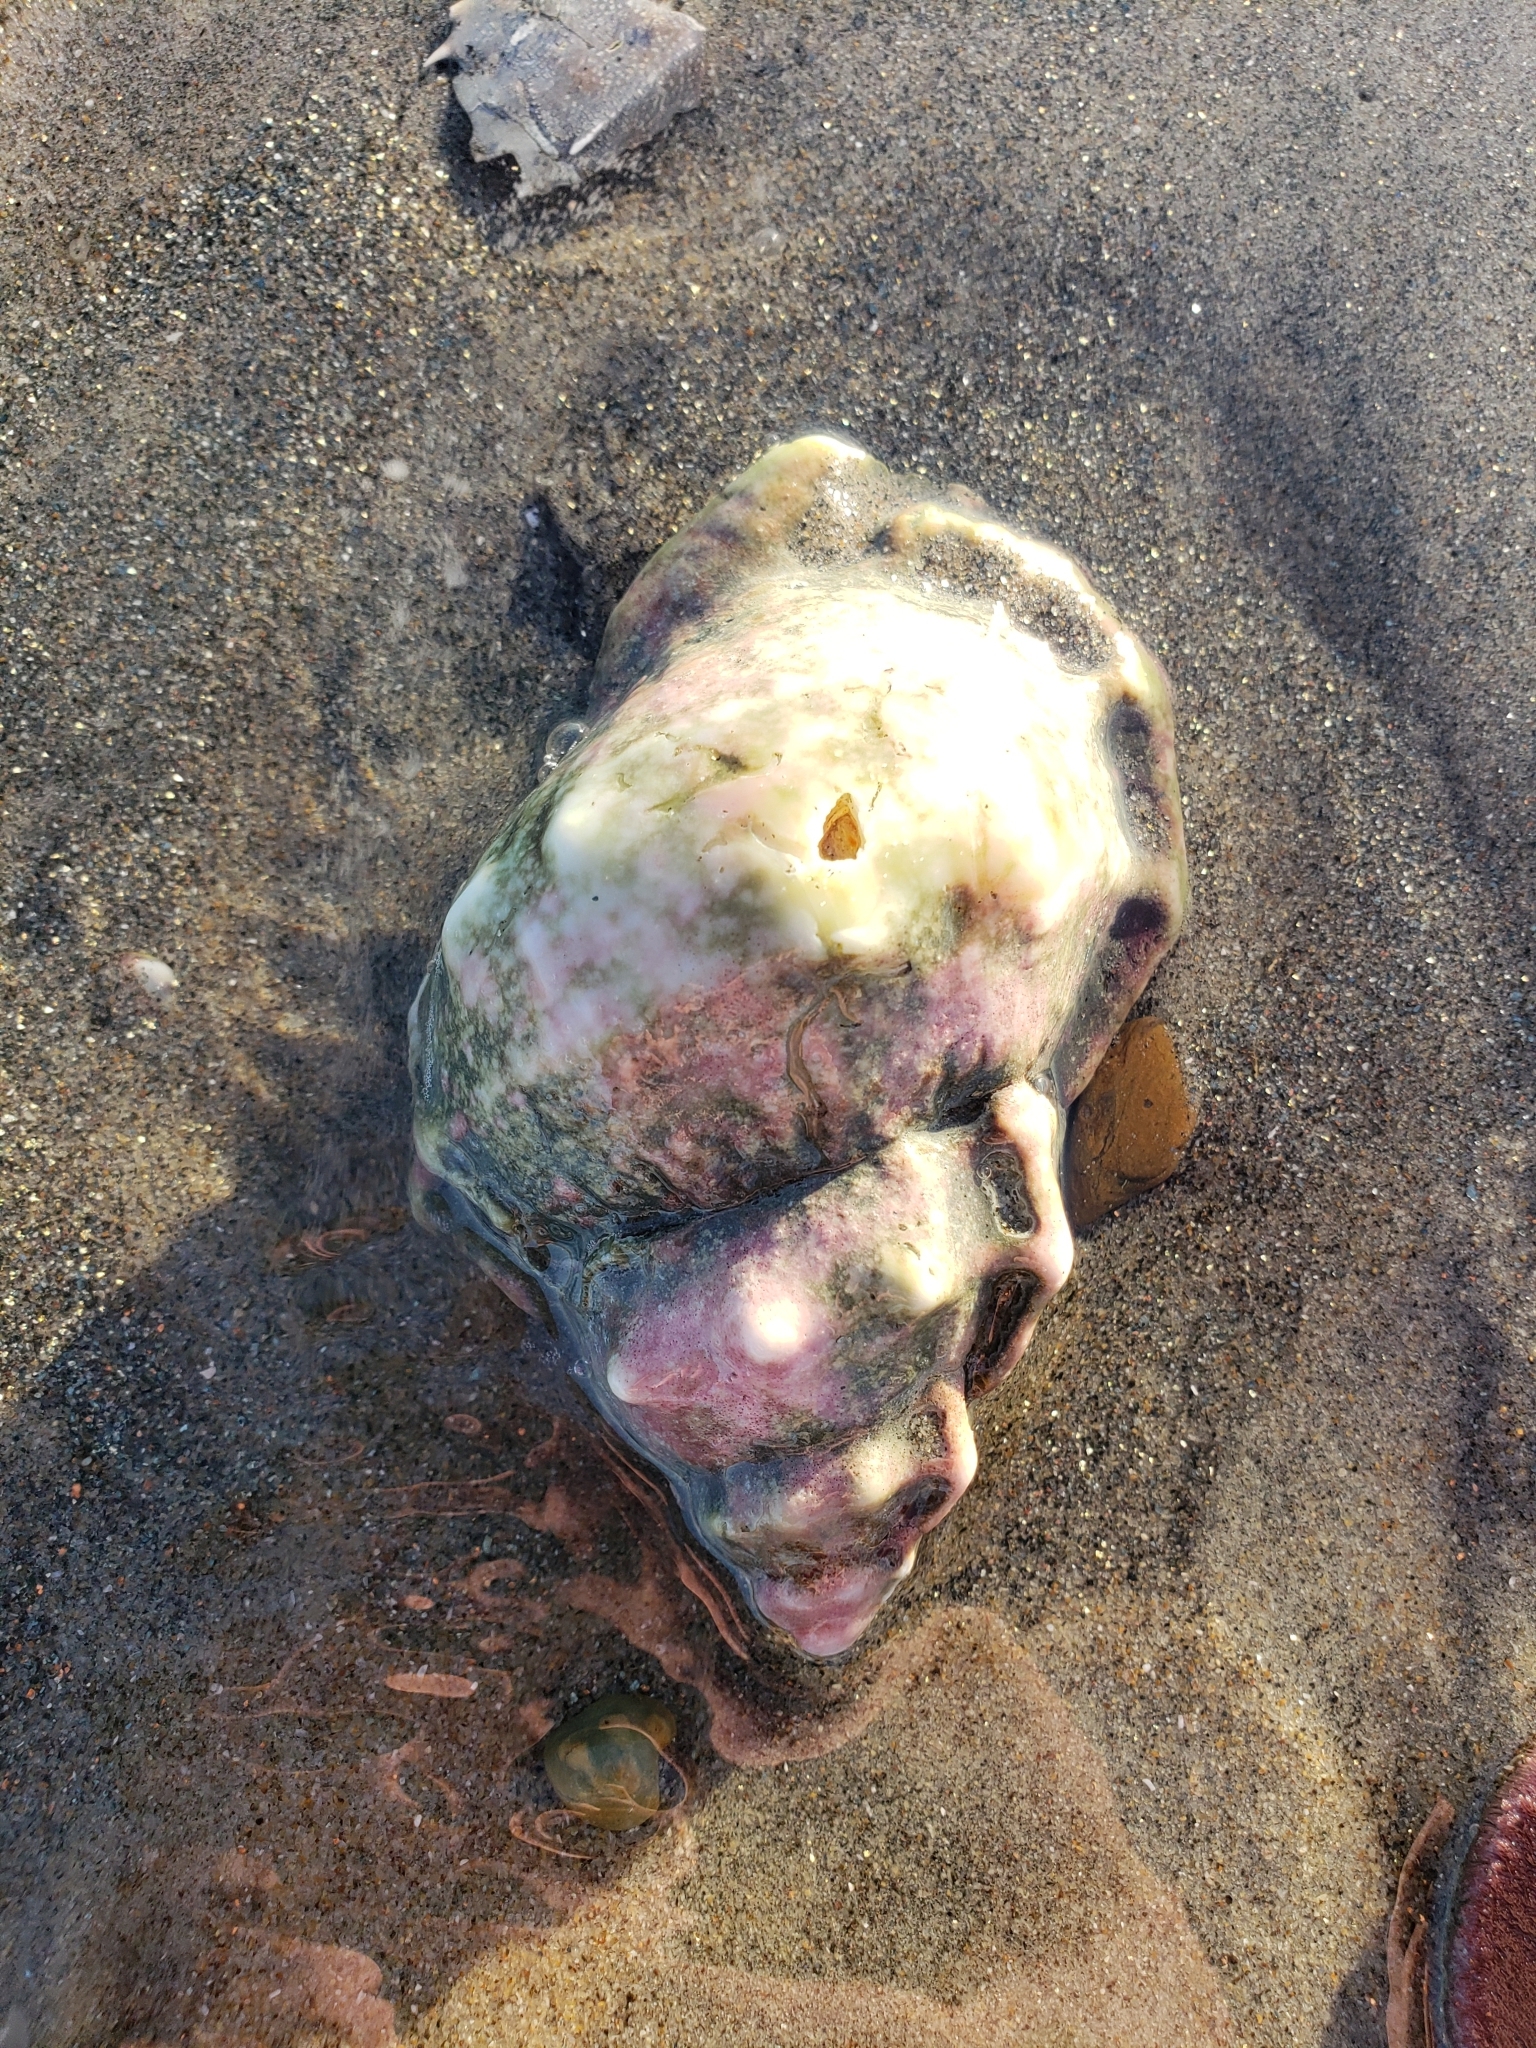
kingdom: Animalia
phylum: Mollusca
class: Gastropoda
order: Littorinimorpha
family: Bursidae
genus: Crossata
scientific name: Crossata californica
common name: California frogsnail
